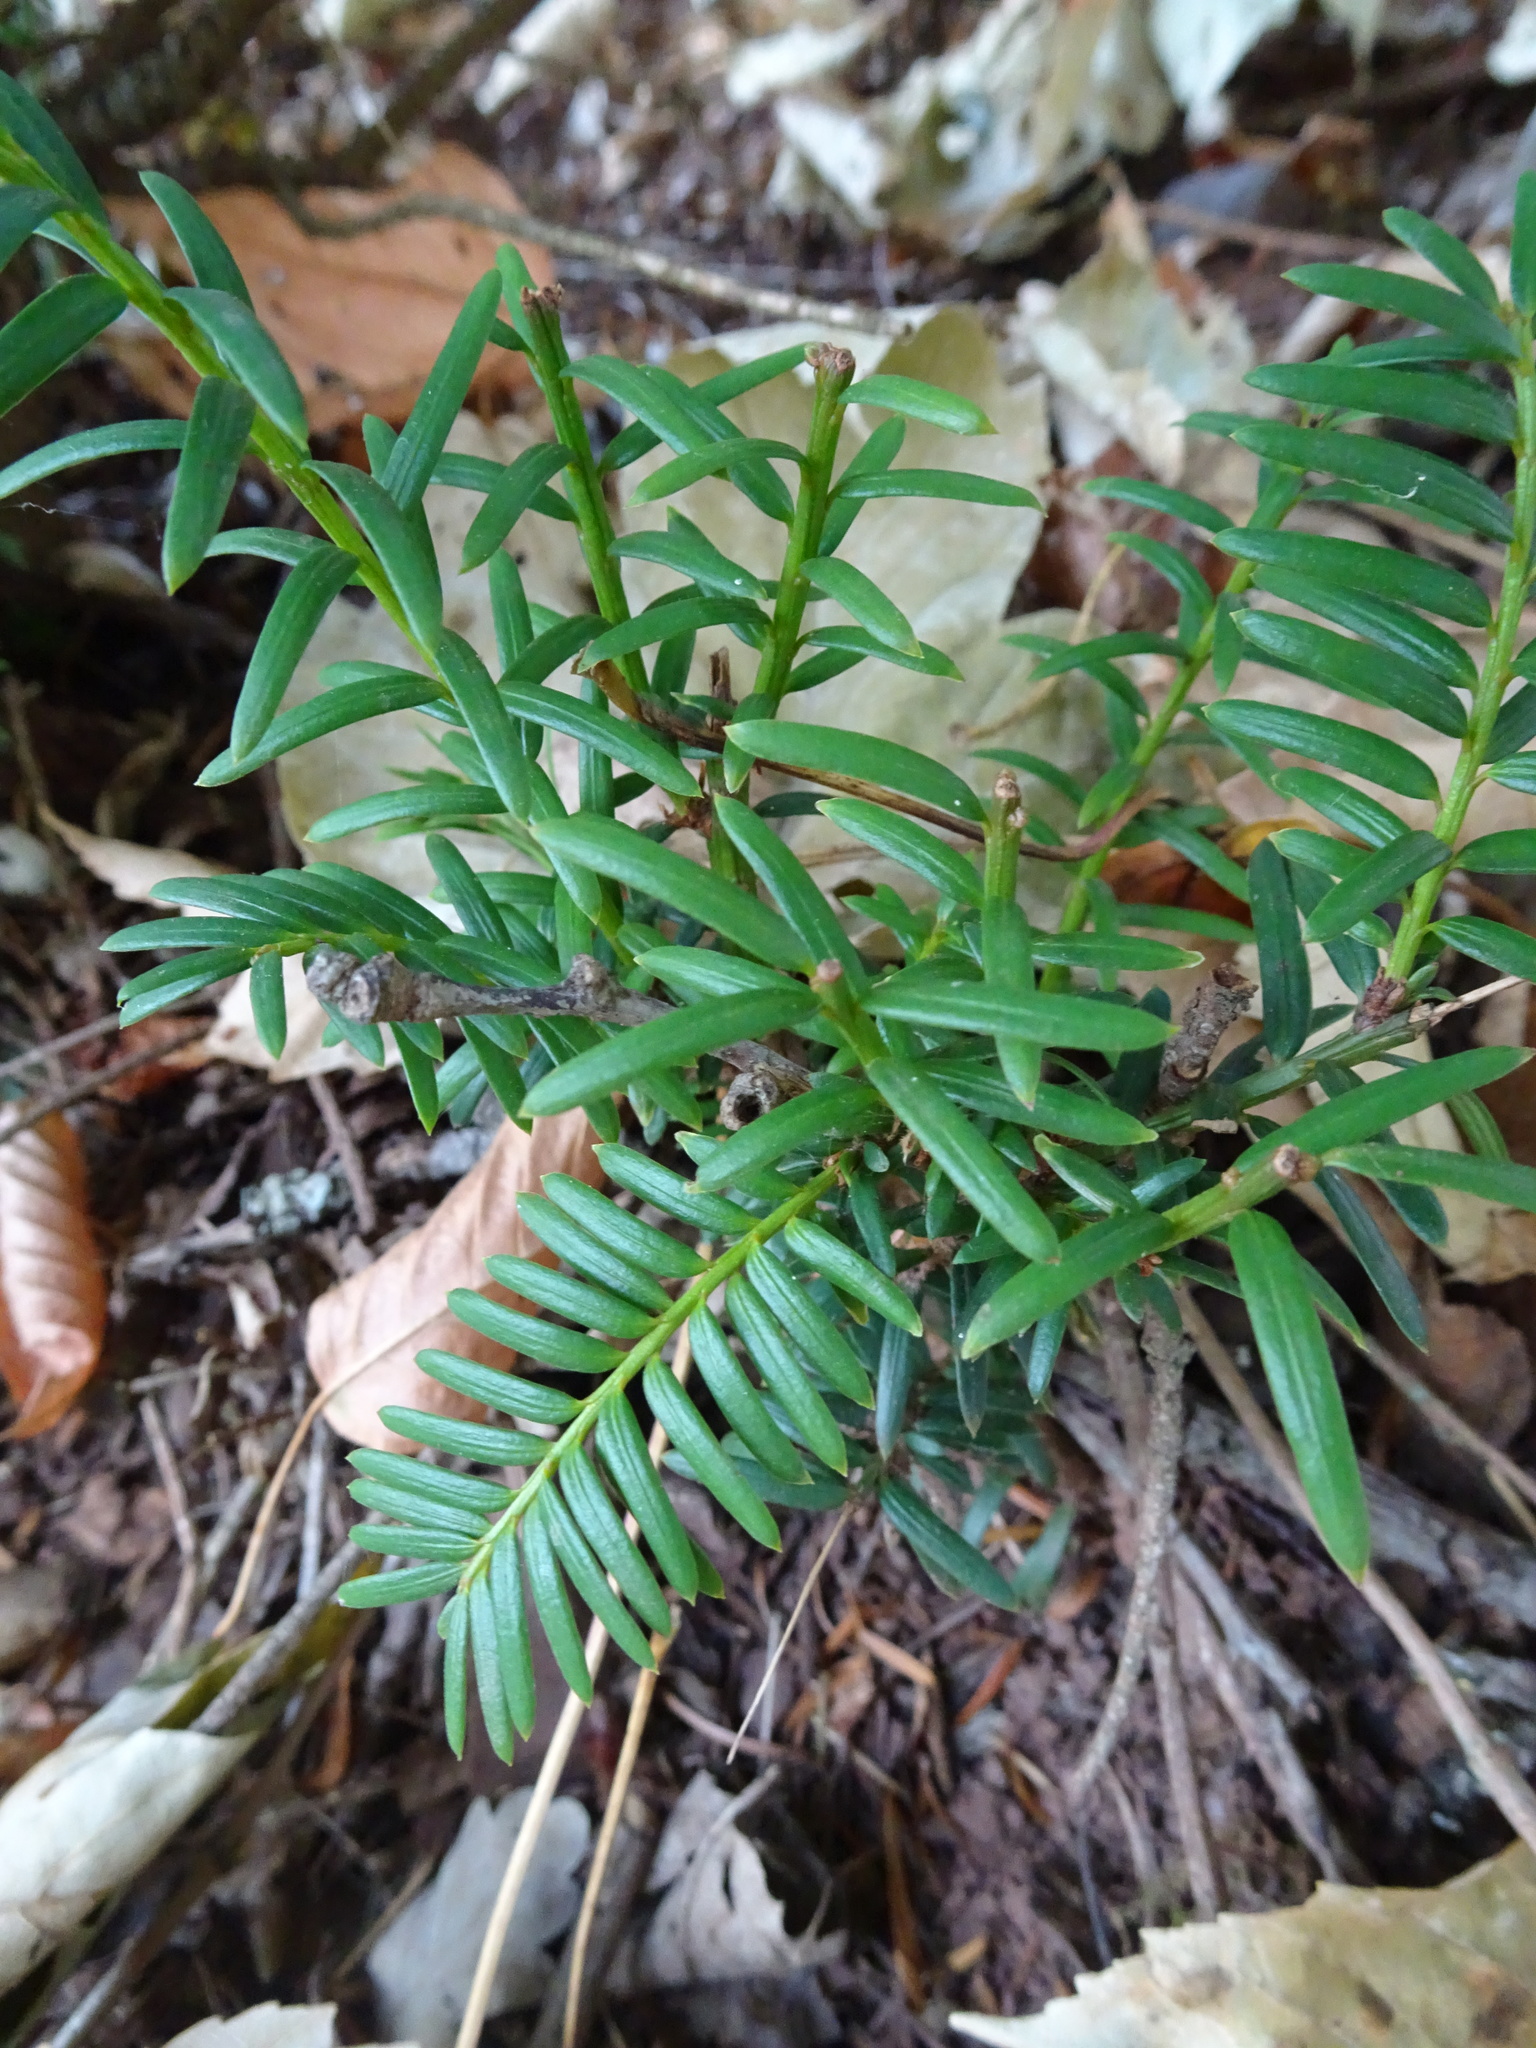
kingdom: Plantae
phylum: Tracheophyta
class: Pinopsida
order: Pinales
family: Taxaceae
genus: Taxus
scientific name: Taxus baccata
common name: Yew
